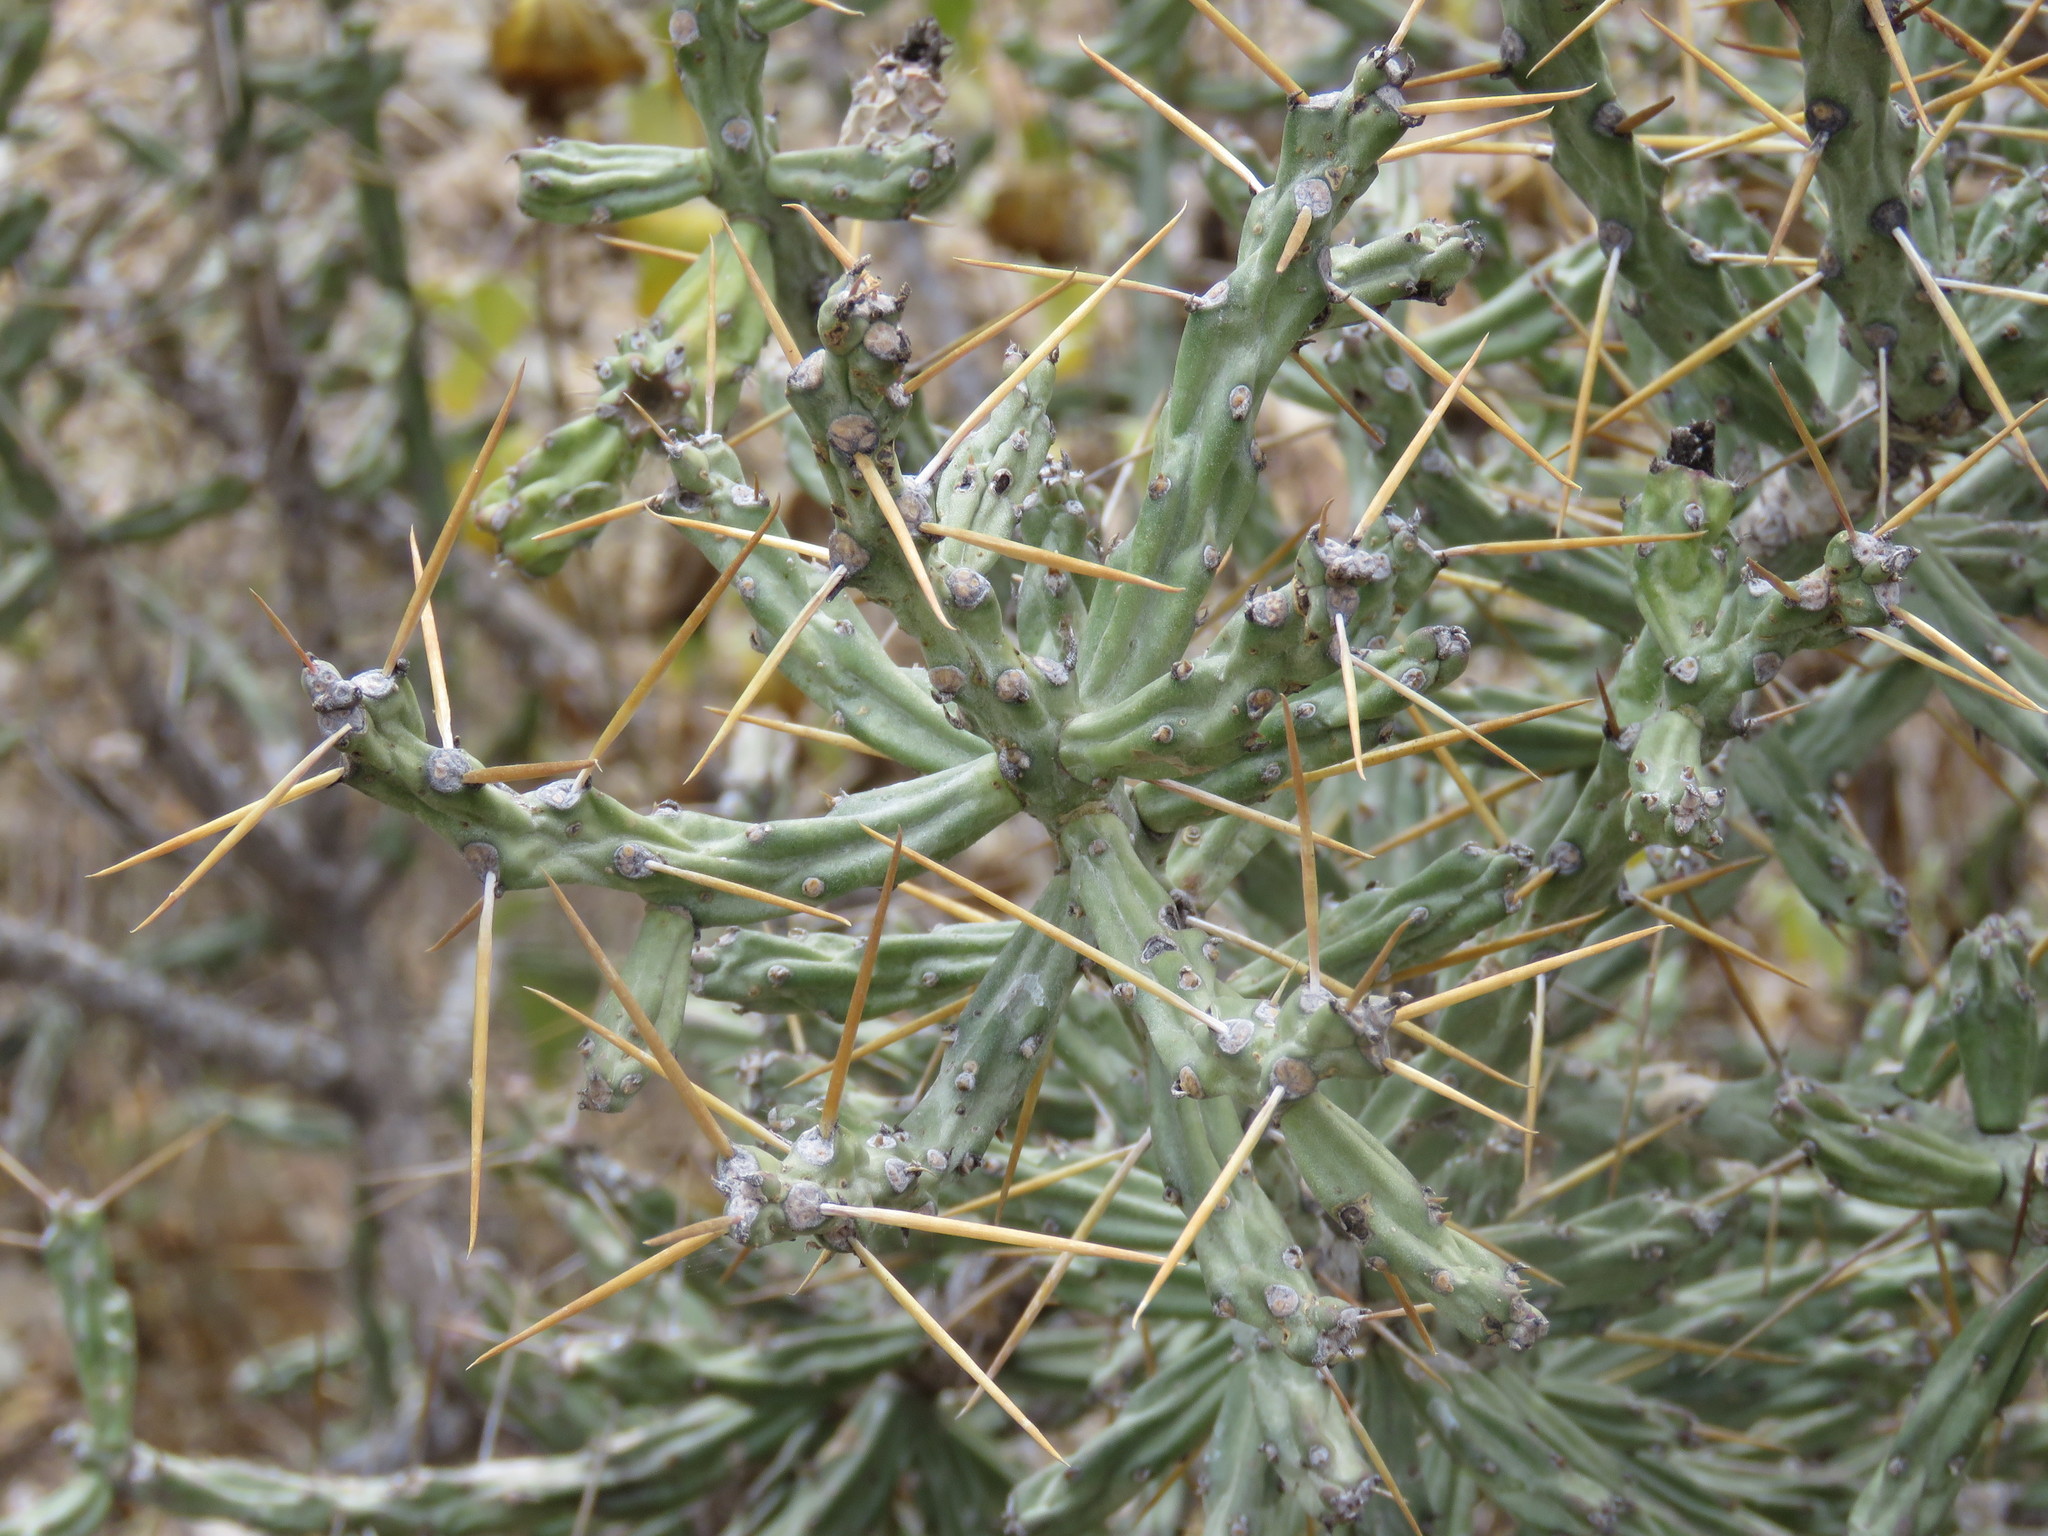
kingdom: Plantae
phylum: Tracheophyta
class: Magnoliopsida
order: Caryophyllales
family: Cactaceae
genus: Cylindropuntia
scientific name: Cylindropuntia kleiniae
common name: Klein's cholla
